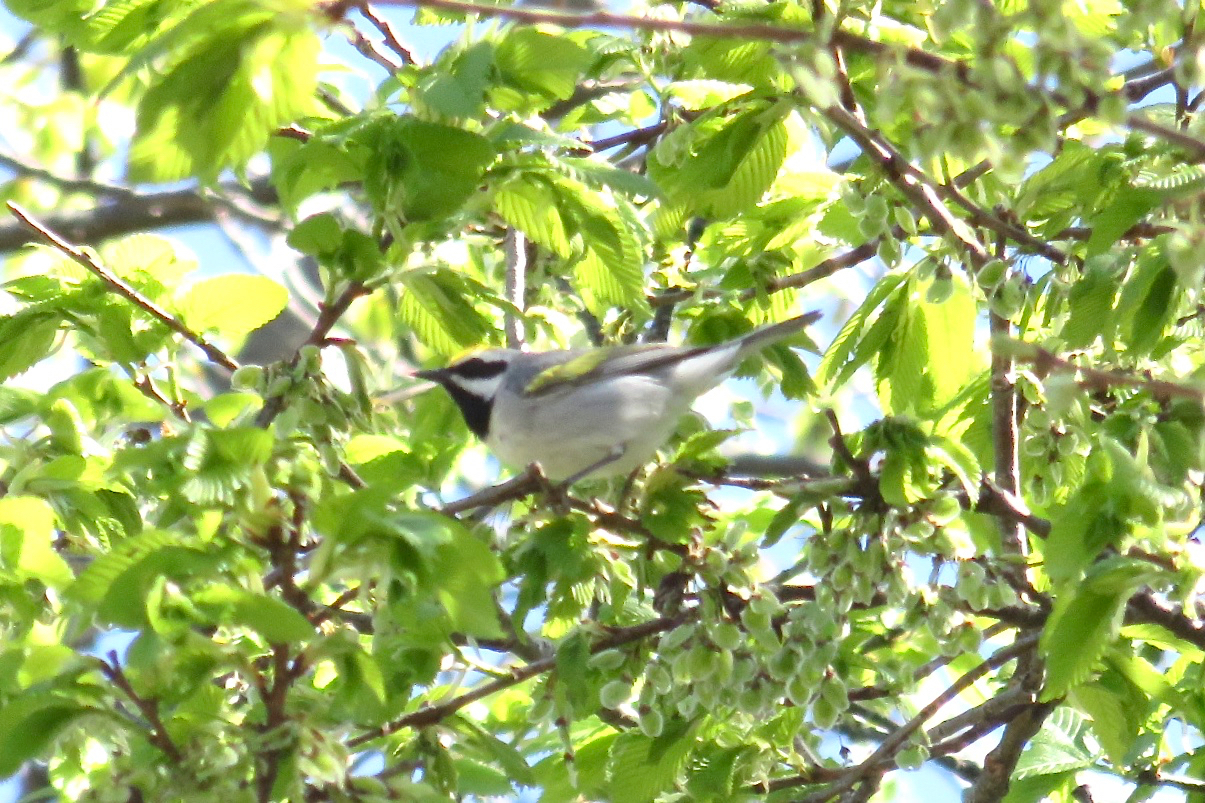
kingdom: Animalia
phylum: Chordata
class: Aves
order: Passeriformes
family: Parulidae
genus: Vermivora
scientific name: Vermivora chrysoptera
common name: Golden-winged warbler
